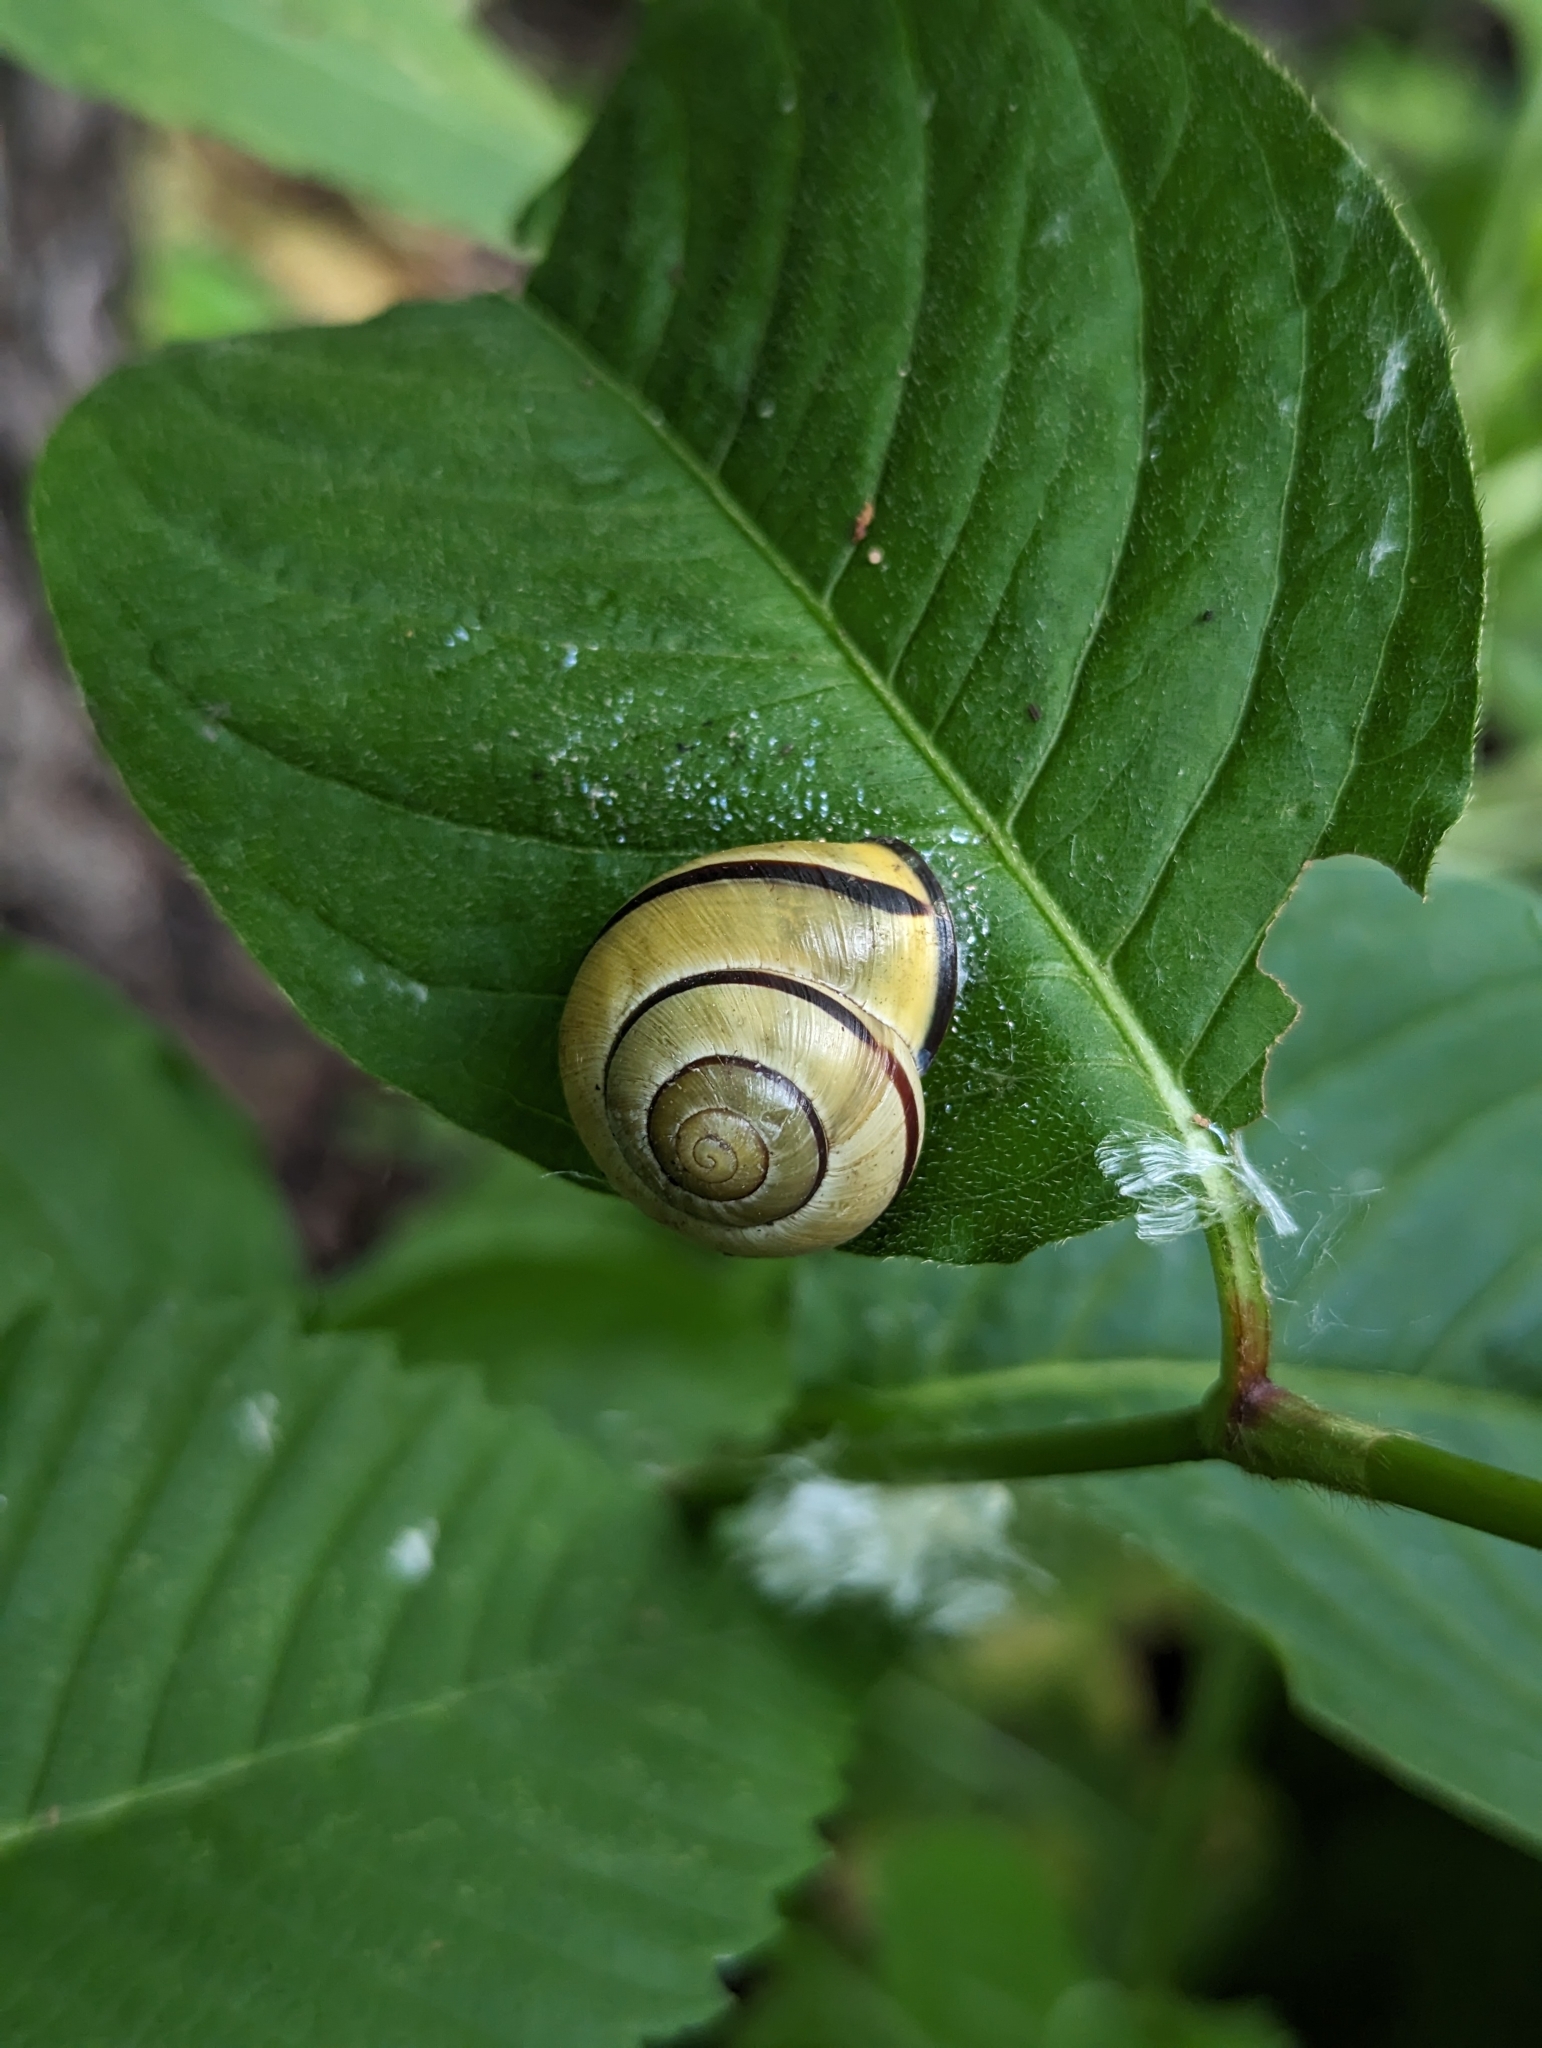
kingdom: Animalia
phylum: Mollusca
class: Gastropoda
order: Stylommatophora
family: Helicidae
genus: Cepaea
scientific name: Cepaea nemoralis
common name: Grovesnail
